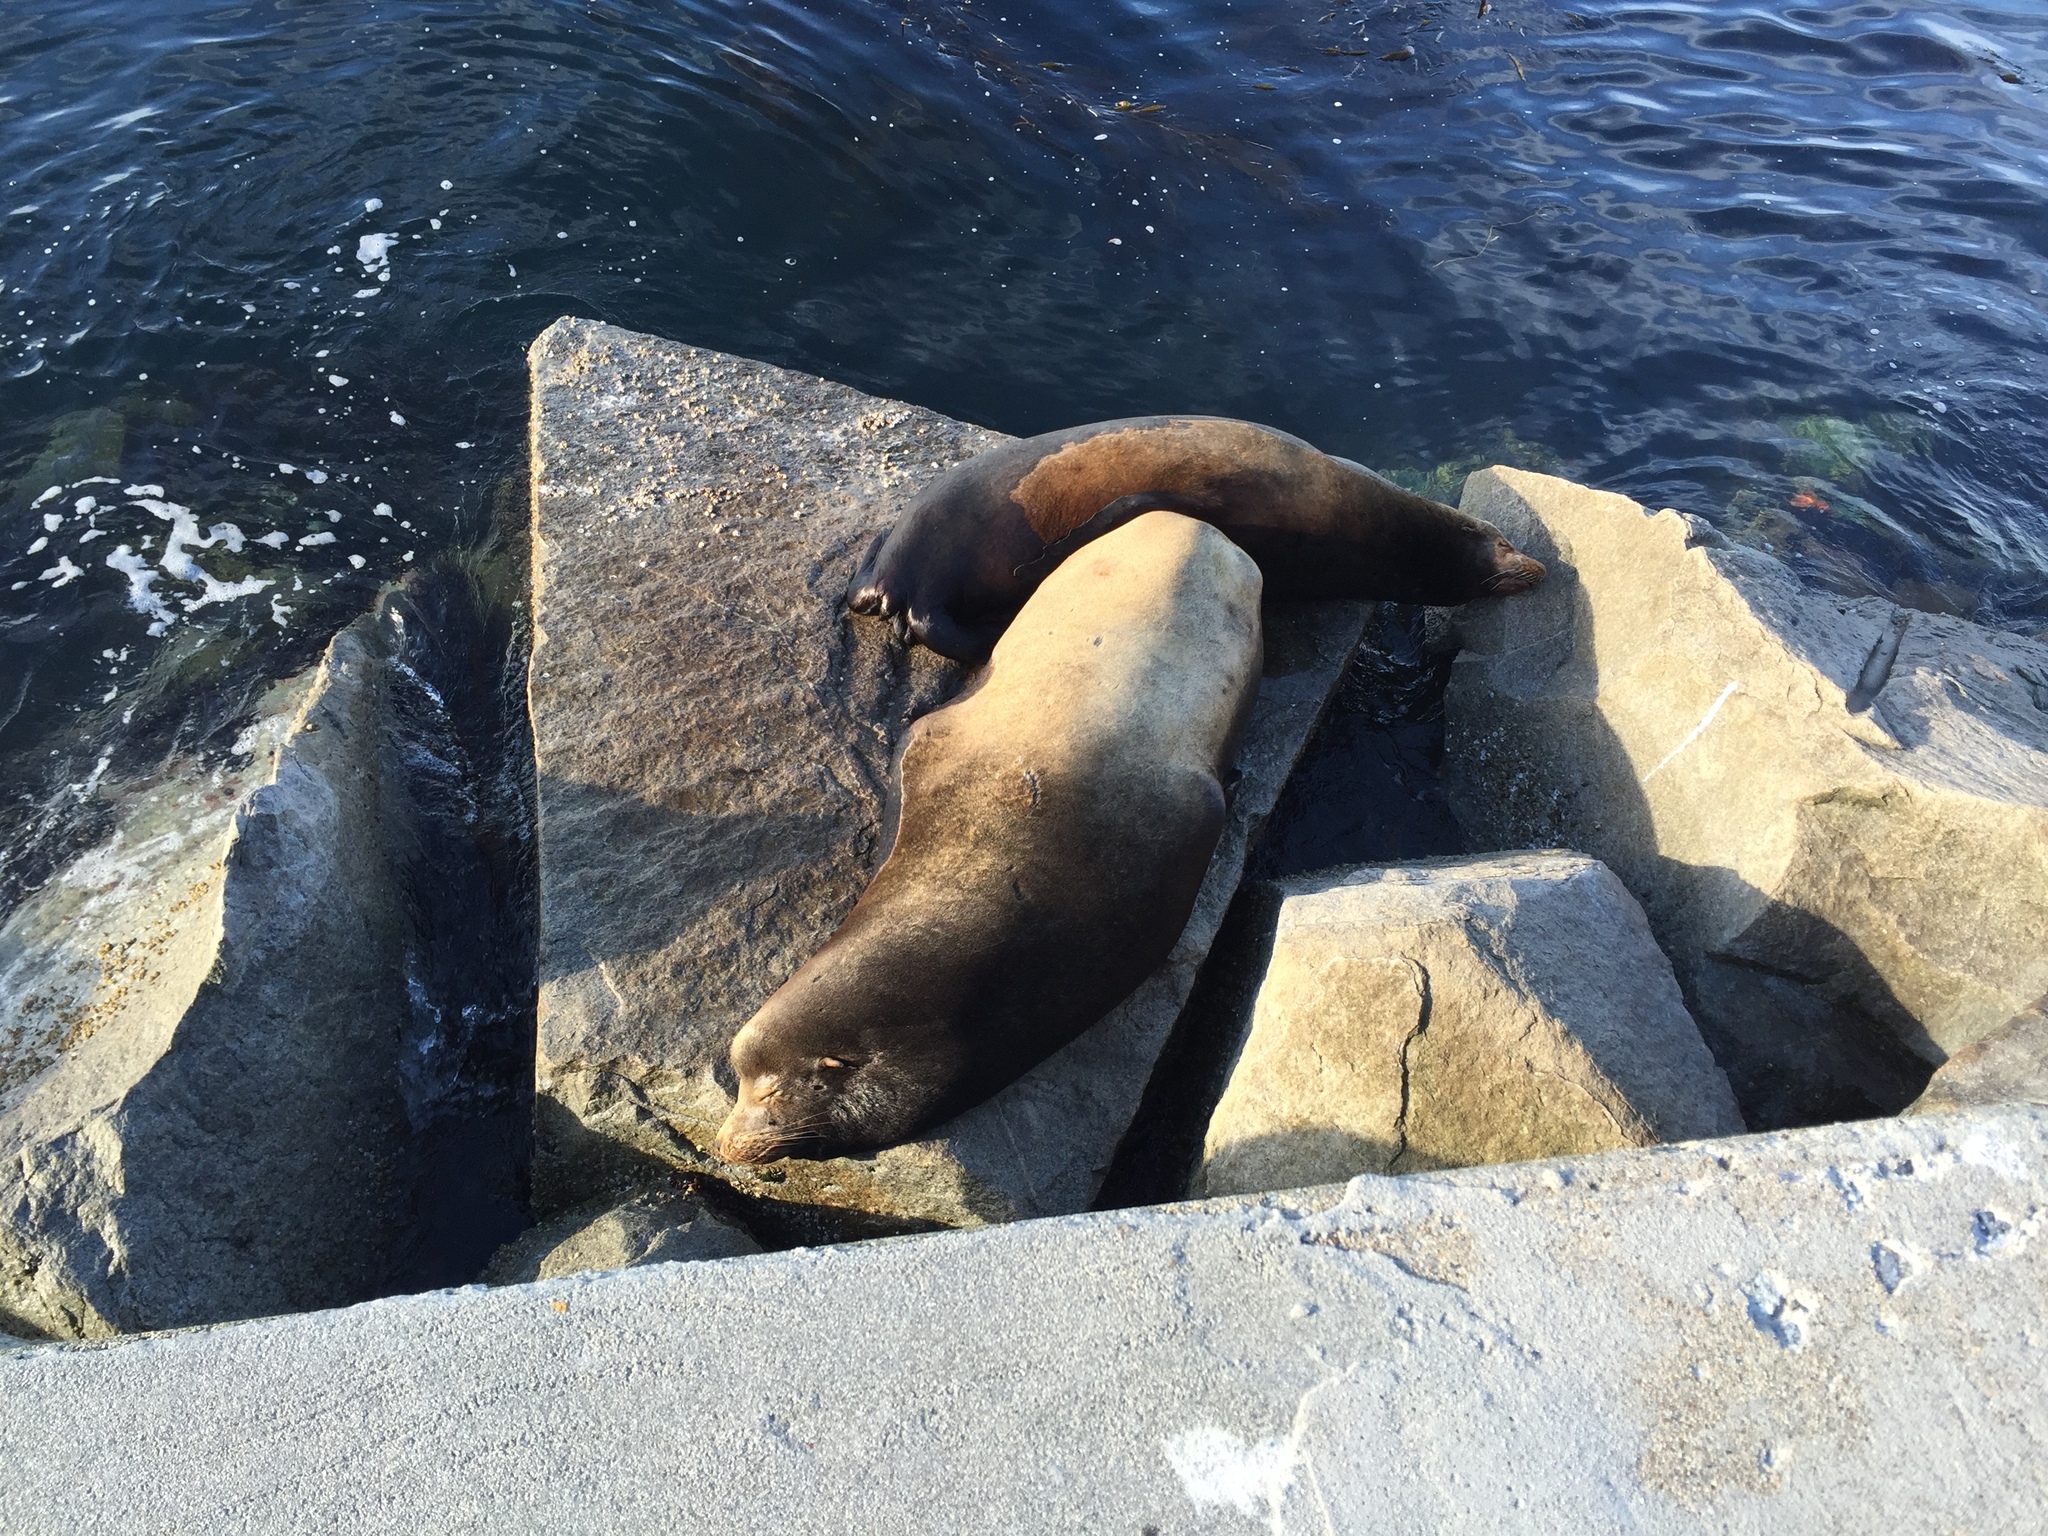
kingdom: Animalia
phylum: Chordata
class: Mammalia
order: Carnivora
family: Otariidae
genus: Zalophus
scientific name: Zalophus californianus
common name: California sea lion
